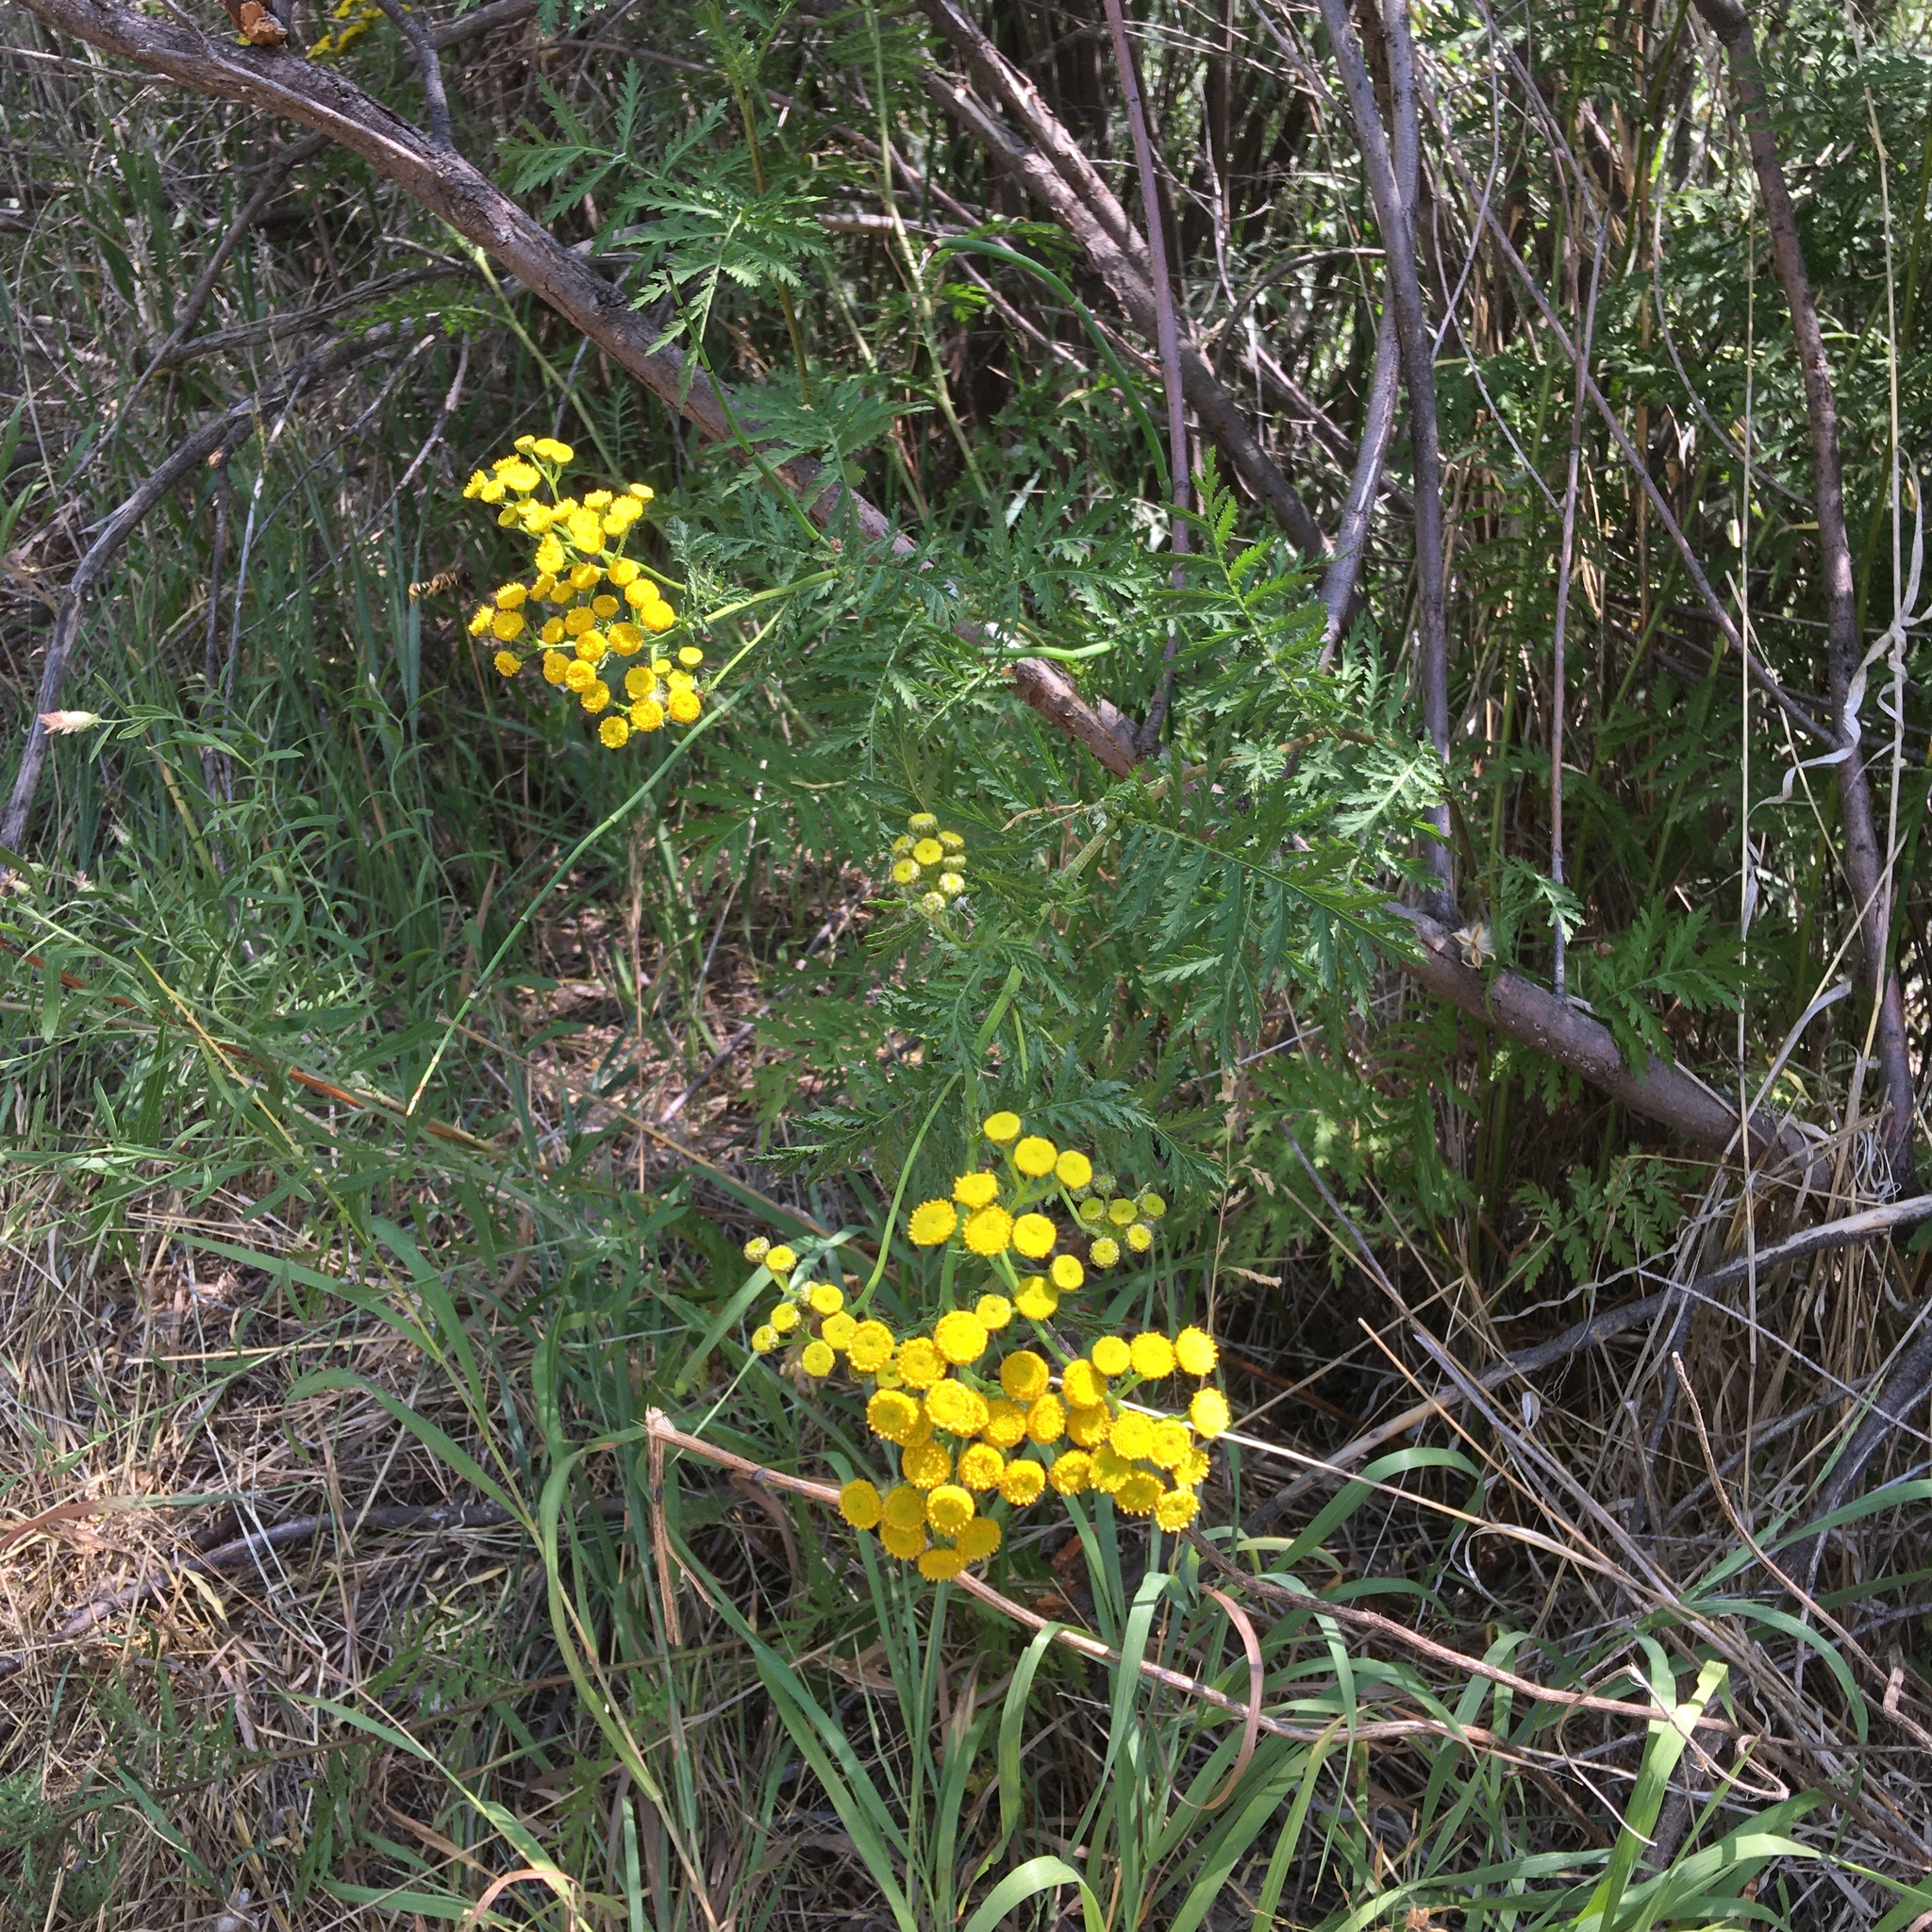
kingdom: Plantae
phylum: Tracheophyta
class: Magnoliopsida
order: Asterales
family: Asteraceae
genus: Tanacetum
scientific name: Tanacetum vulgare
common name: Common tansy
